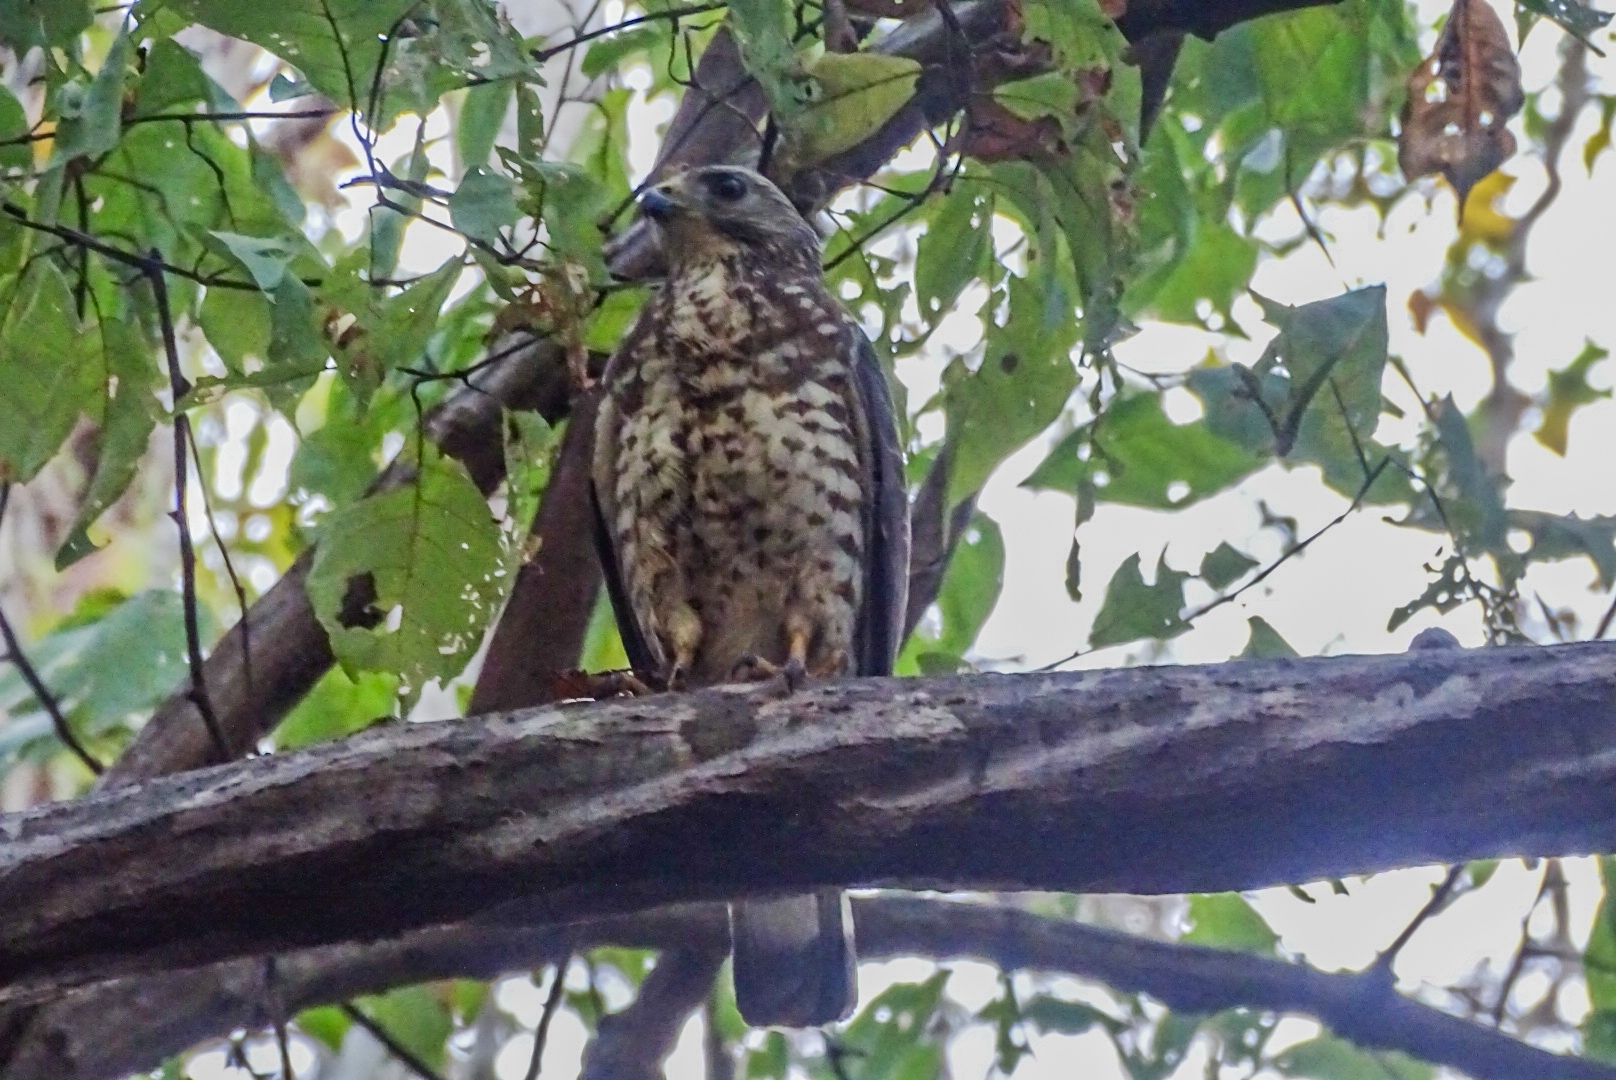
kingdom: Animalia
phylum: Chordata
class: Aves
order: Accipitriformes
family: Accipitridae
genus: Buteo
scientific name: Buteo platypterus
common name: Broad-winged hawk
